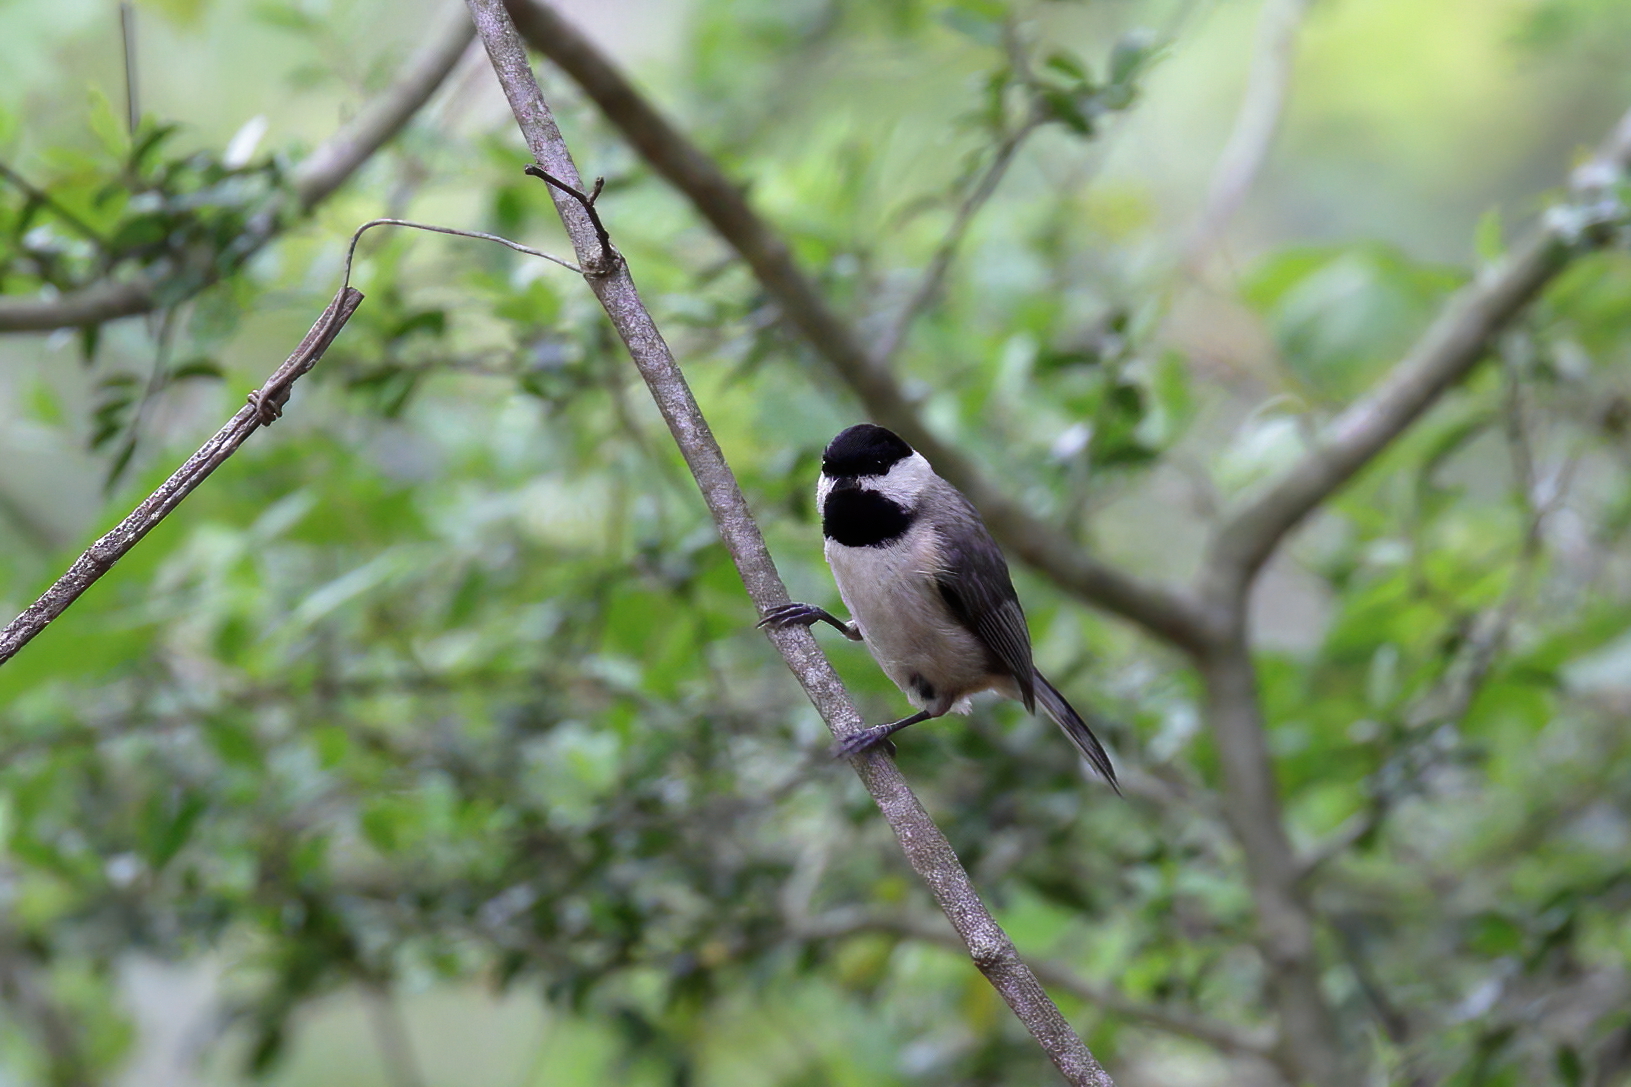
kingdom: Animalia
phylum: Chordata
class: Aves
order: Passeriformes
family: Paridae
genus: Poecile
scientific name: Poecile carolinensis
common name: Carolina chickadee
